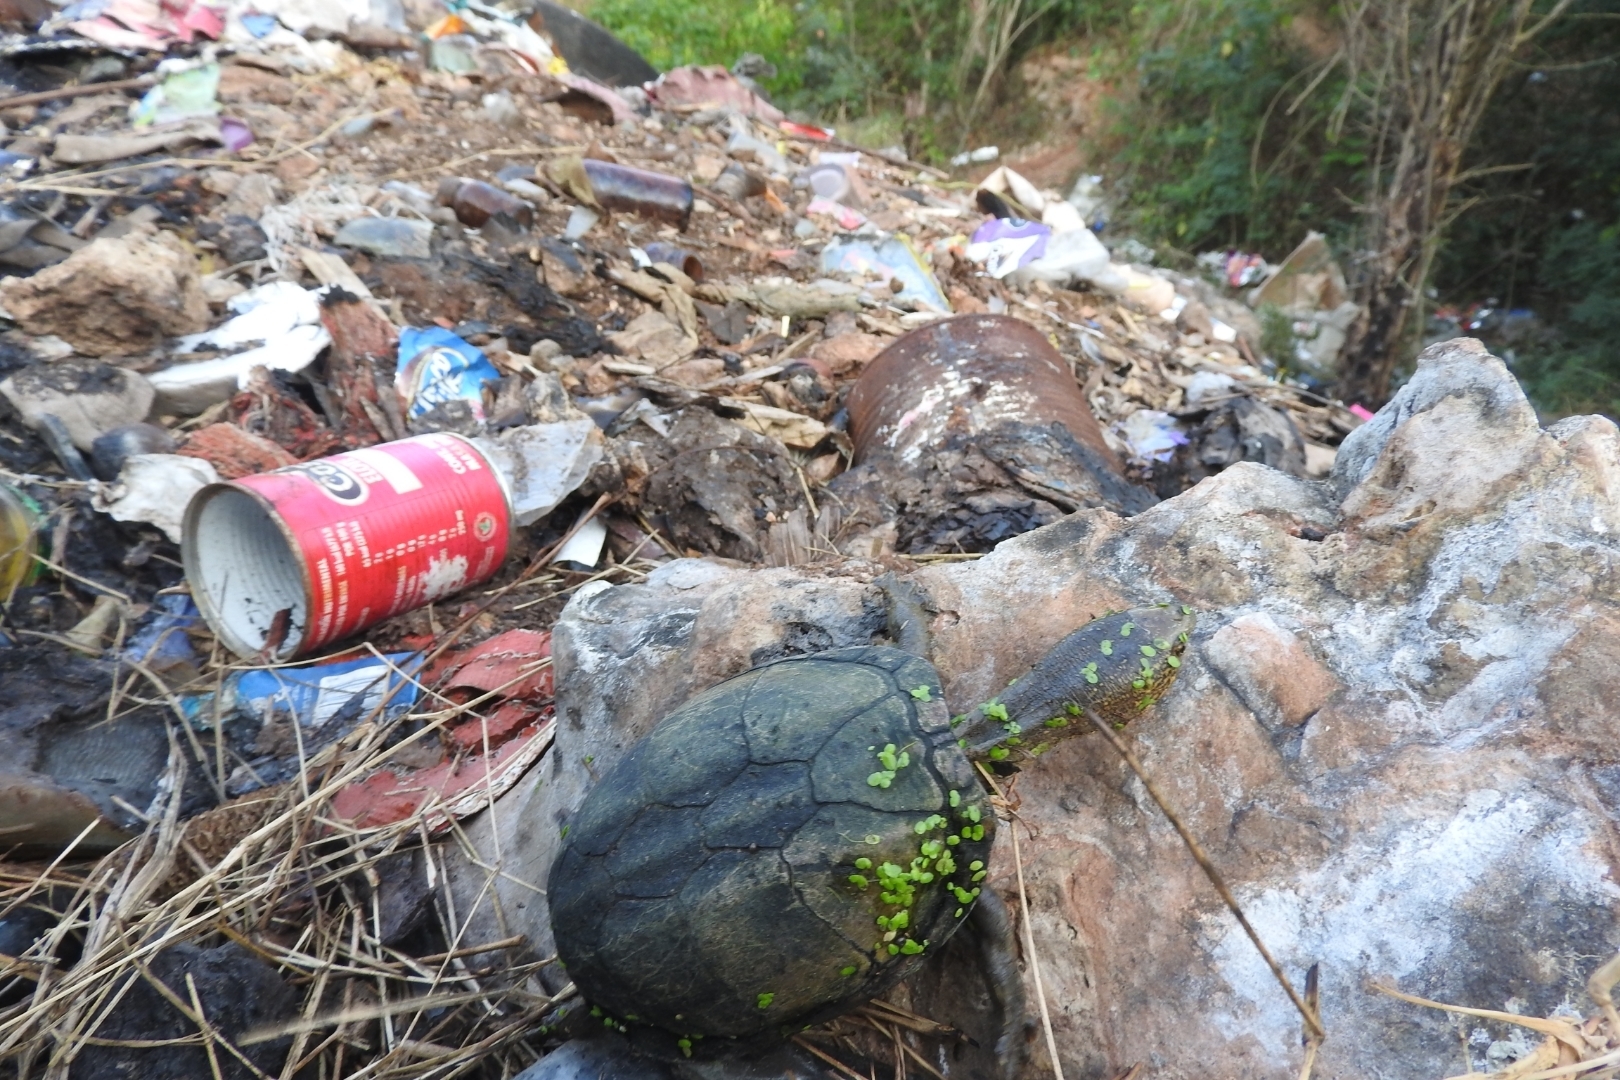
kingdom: Animalia
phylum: Chordata
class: Testudines
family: Kinosternidae
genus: Kinosternon
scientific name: Kinosternon scorpioides
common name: Scorpion mud turtle
